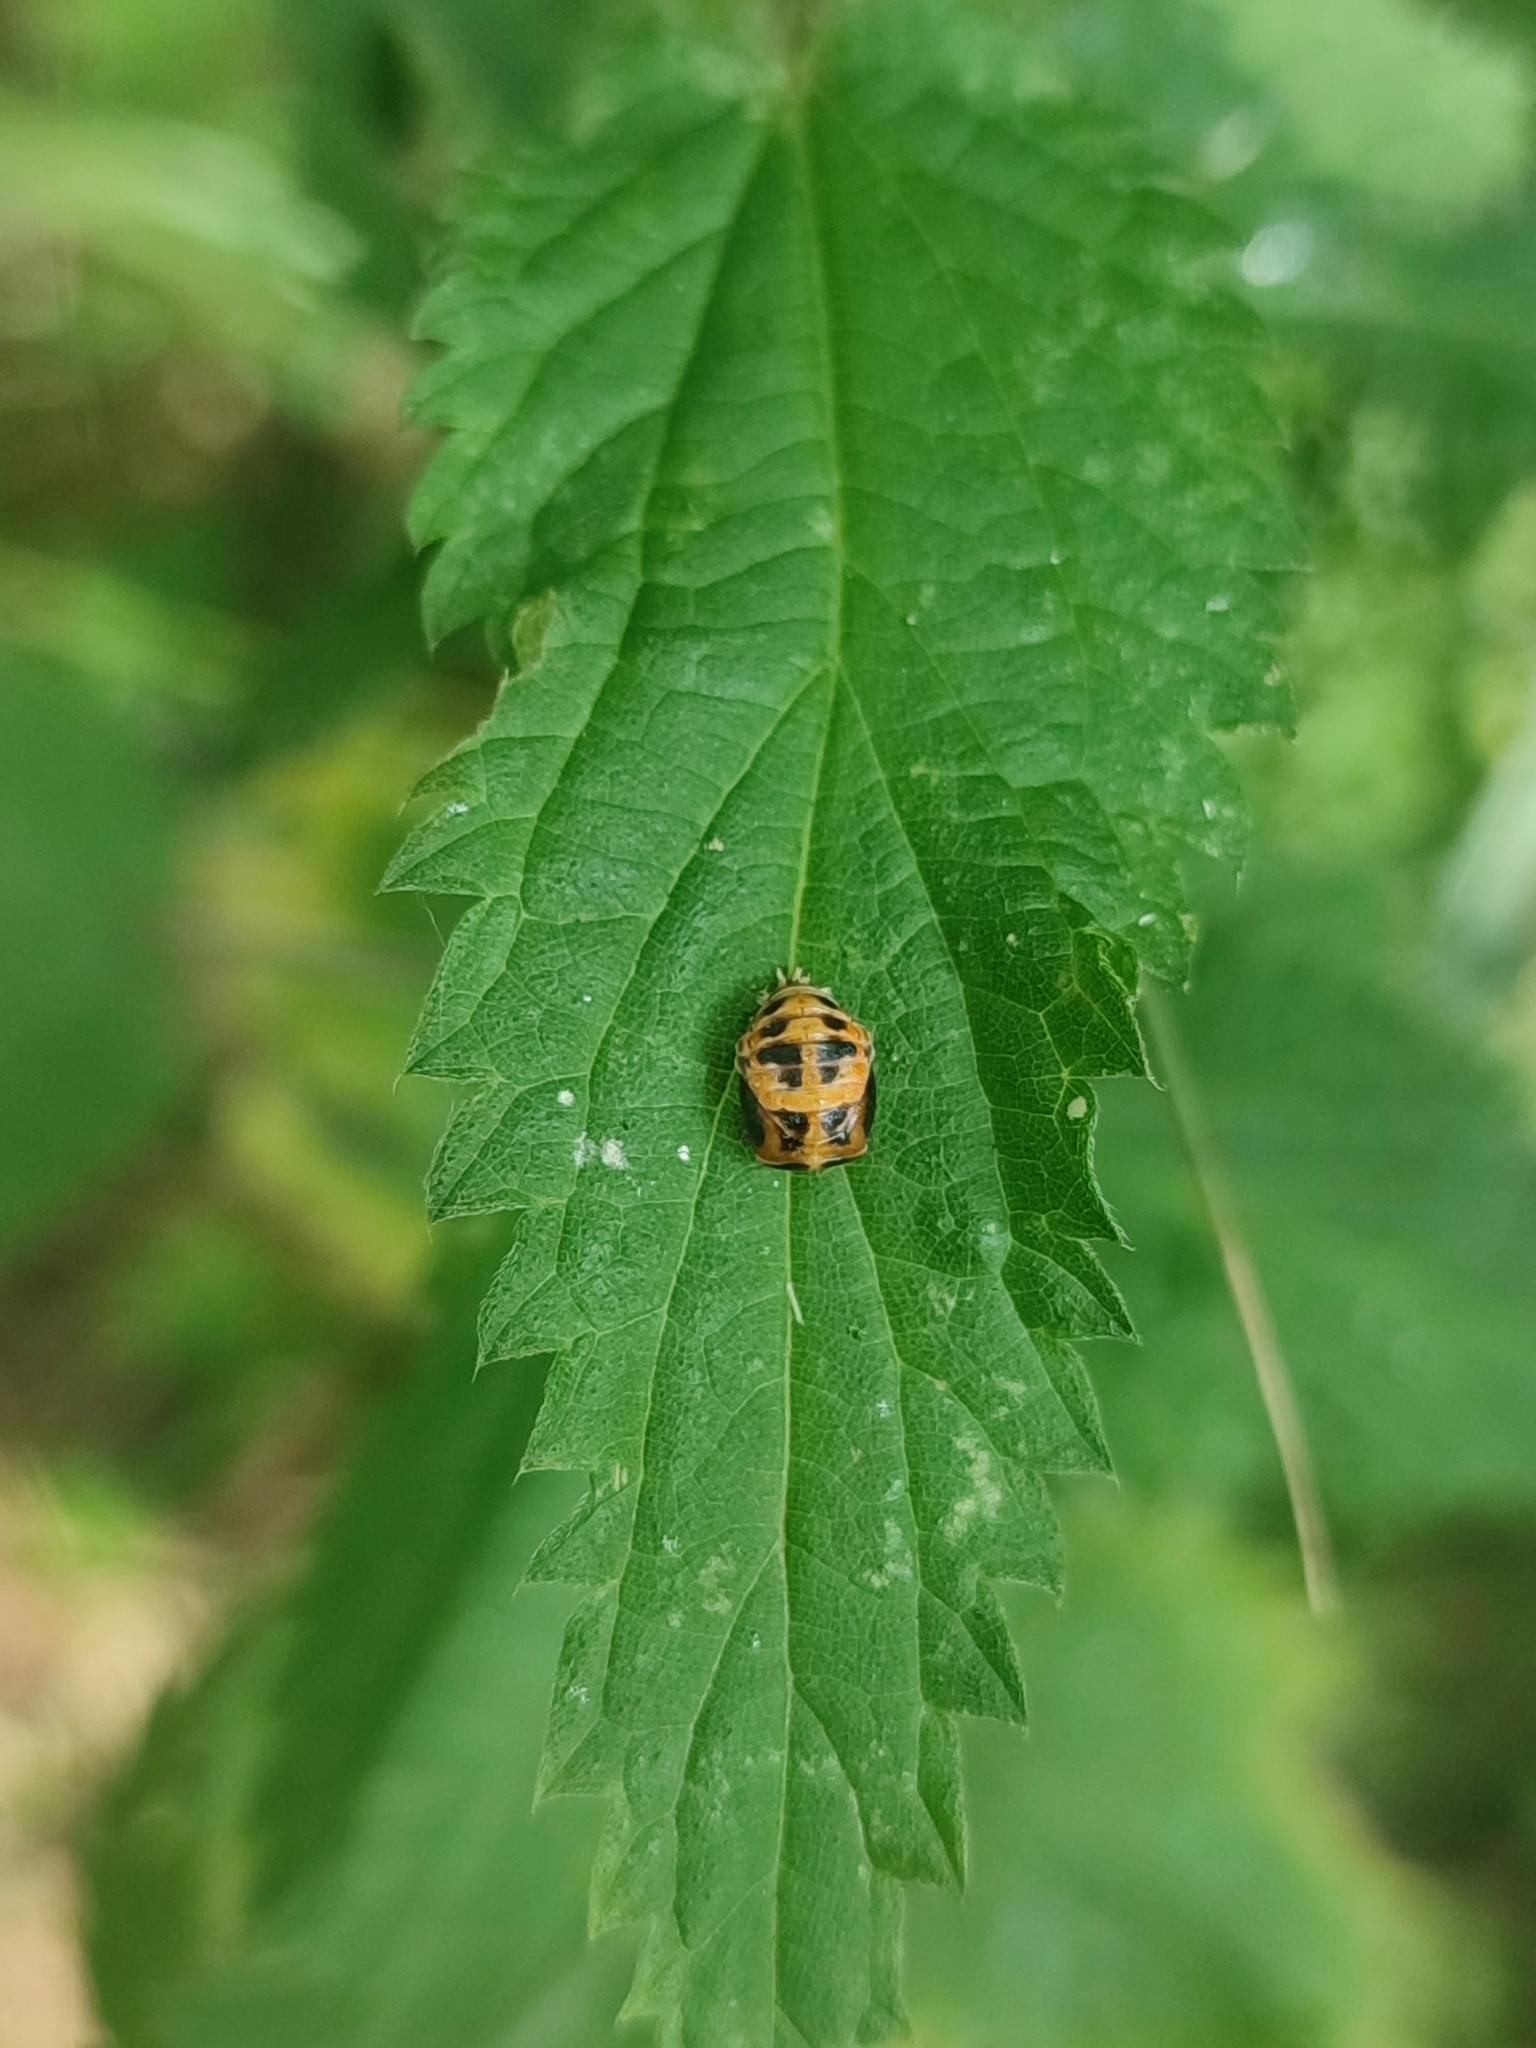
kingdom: Animalia
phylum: Arthropoda
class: Insecta
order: Coleoptera
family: Coccinellidae
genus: Harmonia
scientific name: Harmonia axyridis
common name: Harlequin ladybird
